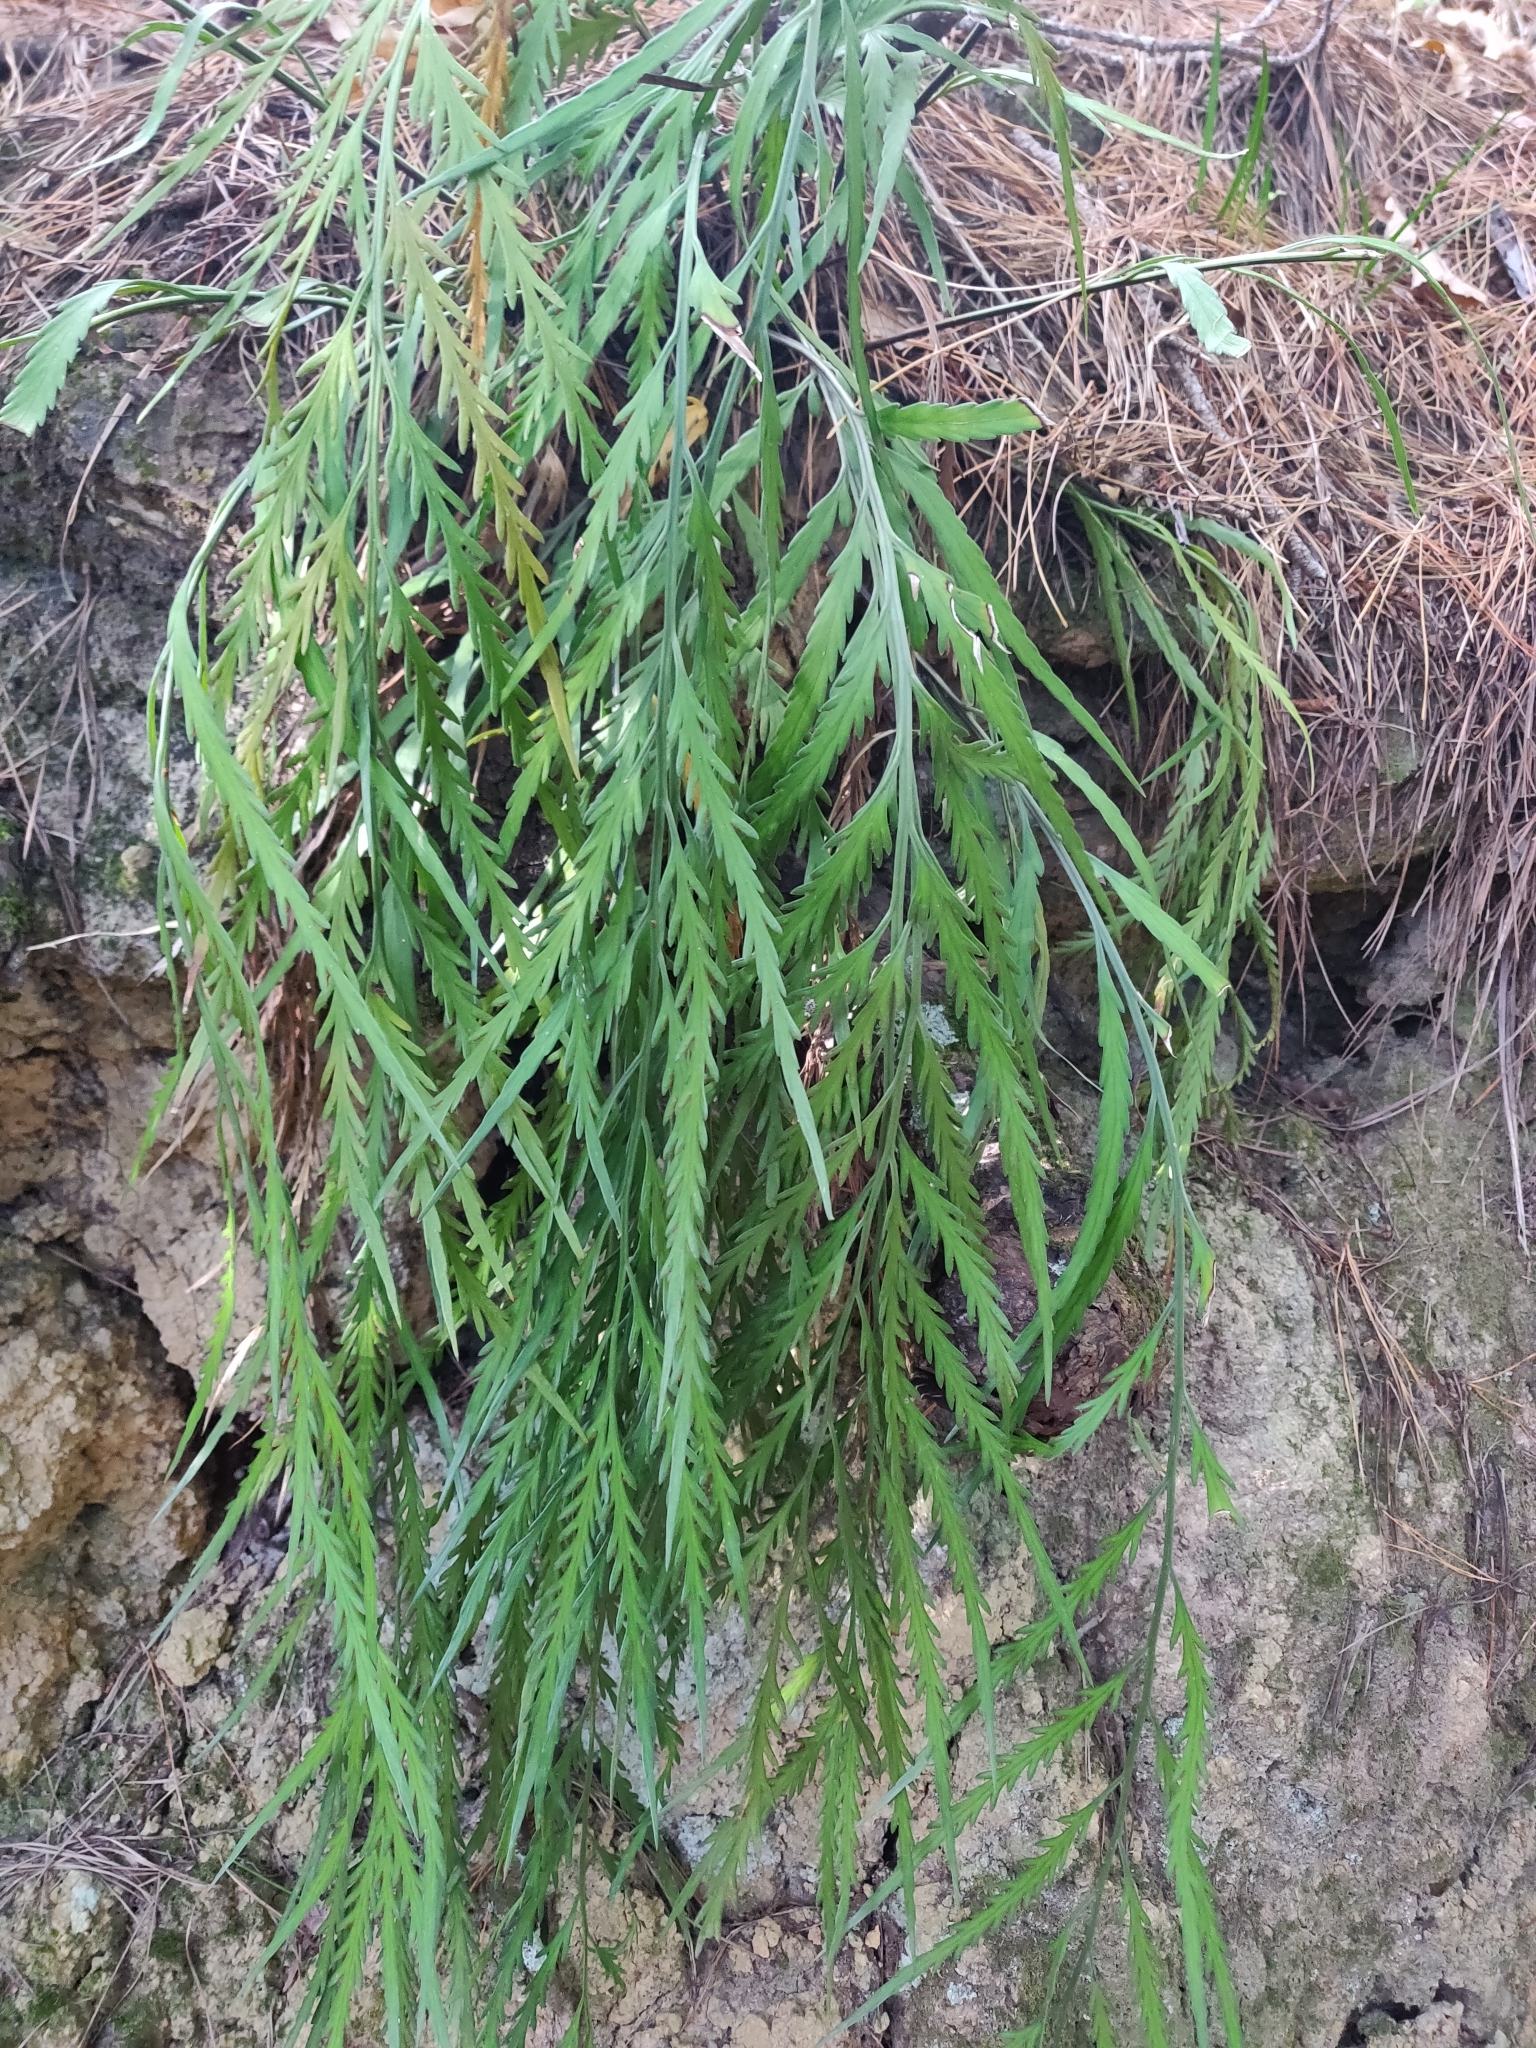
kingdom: Plantae
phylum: Tracheophyta
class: Polypodiopsida
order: Polypodiales
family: Aspleniaceae
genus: Asplenium
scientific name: Asplenium flaccidum
